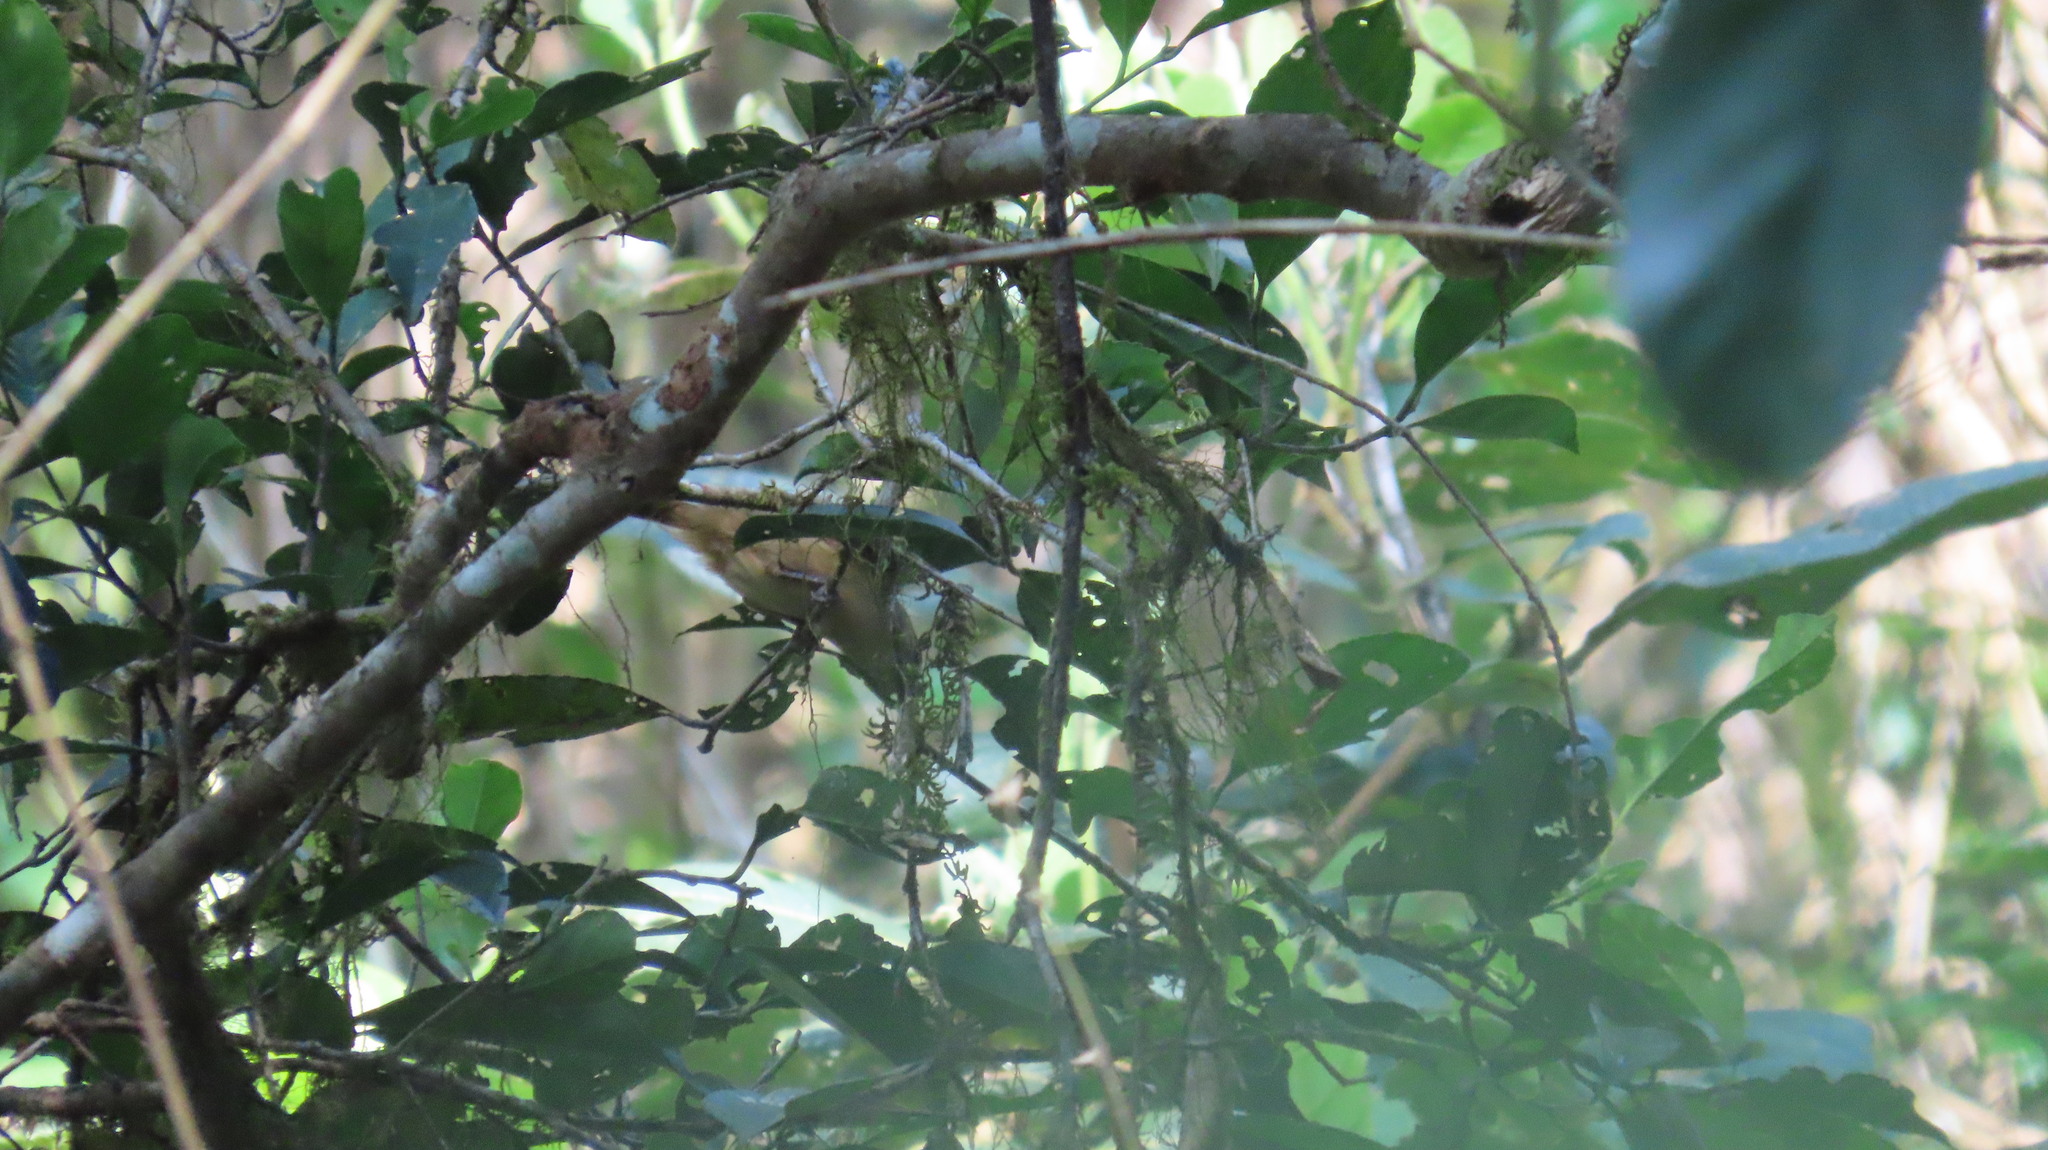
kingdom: Animalia
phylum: Chordata
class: Aves
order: Passeriformes
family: Pellorneidae
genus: Alcippe
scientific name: Alcippe poioicephala
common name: Brown-cheeked fulvetta
